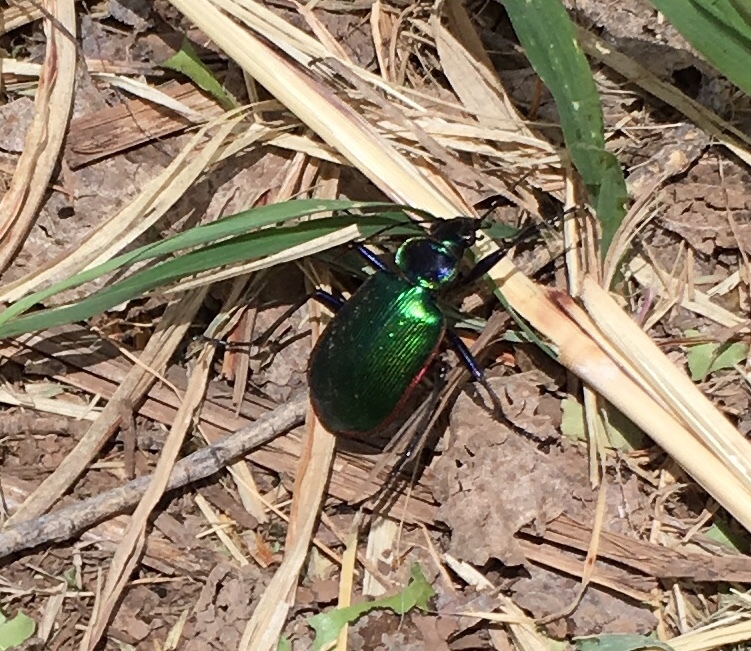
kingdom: Animalia
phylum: Arthropoda
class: Insecta
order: Coleoptera
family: Carabidae
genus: Calosoma
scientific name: Calosoma scrutator
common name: Fiery searcher beetle
